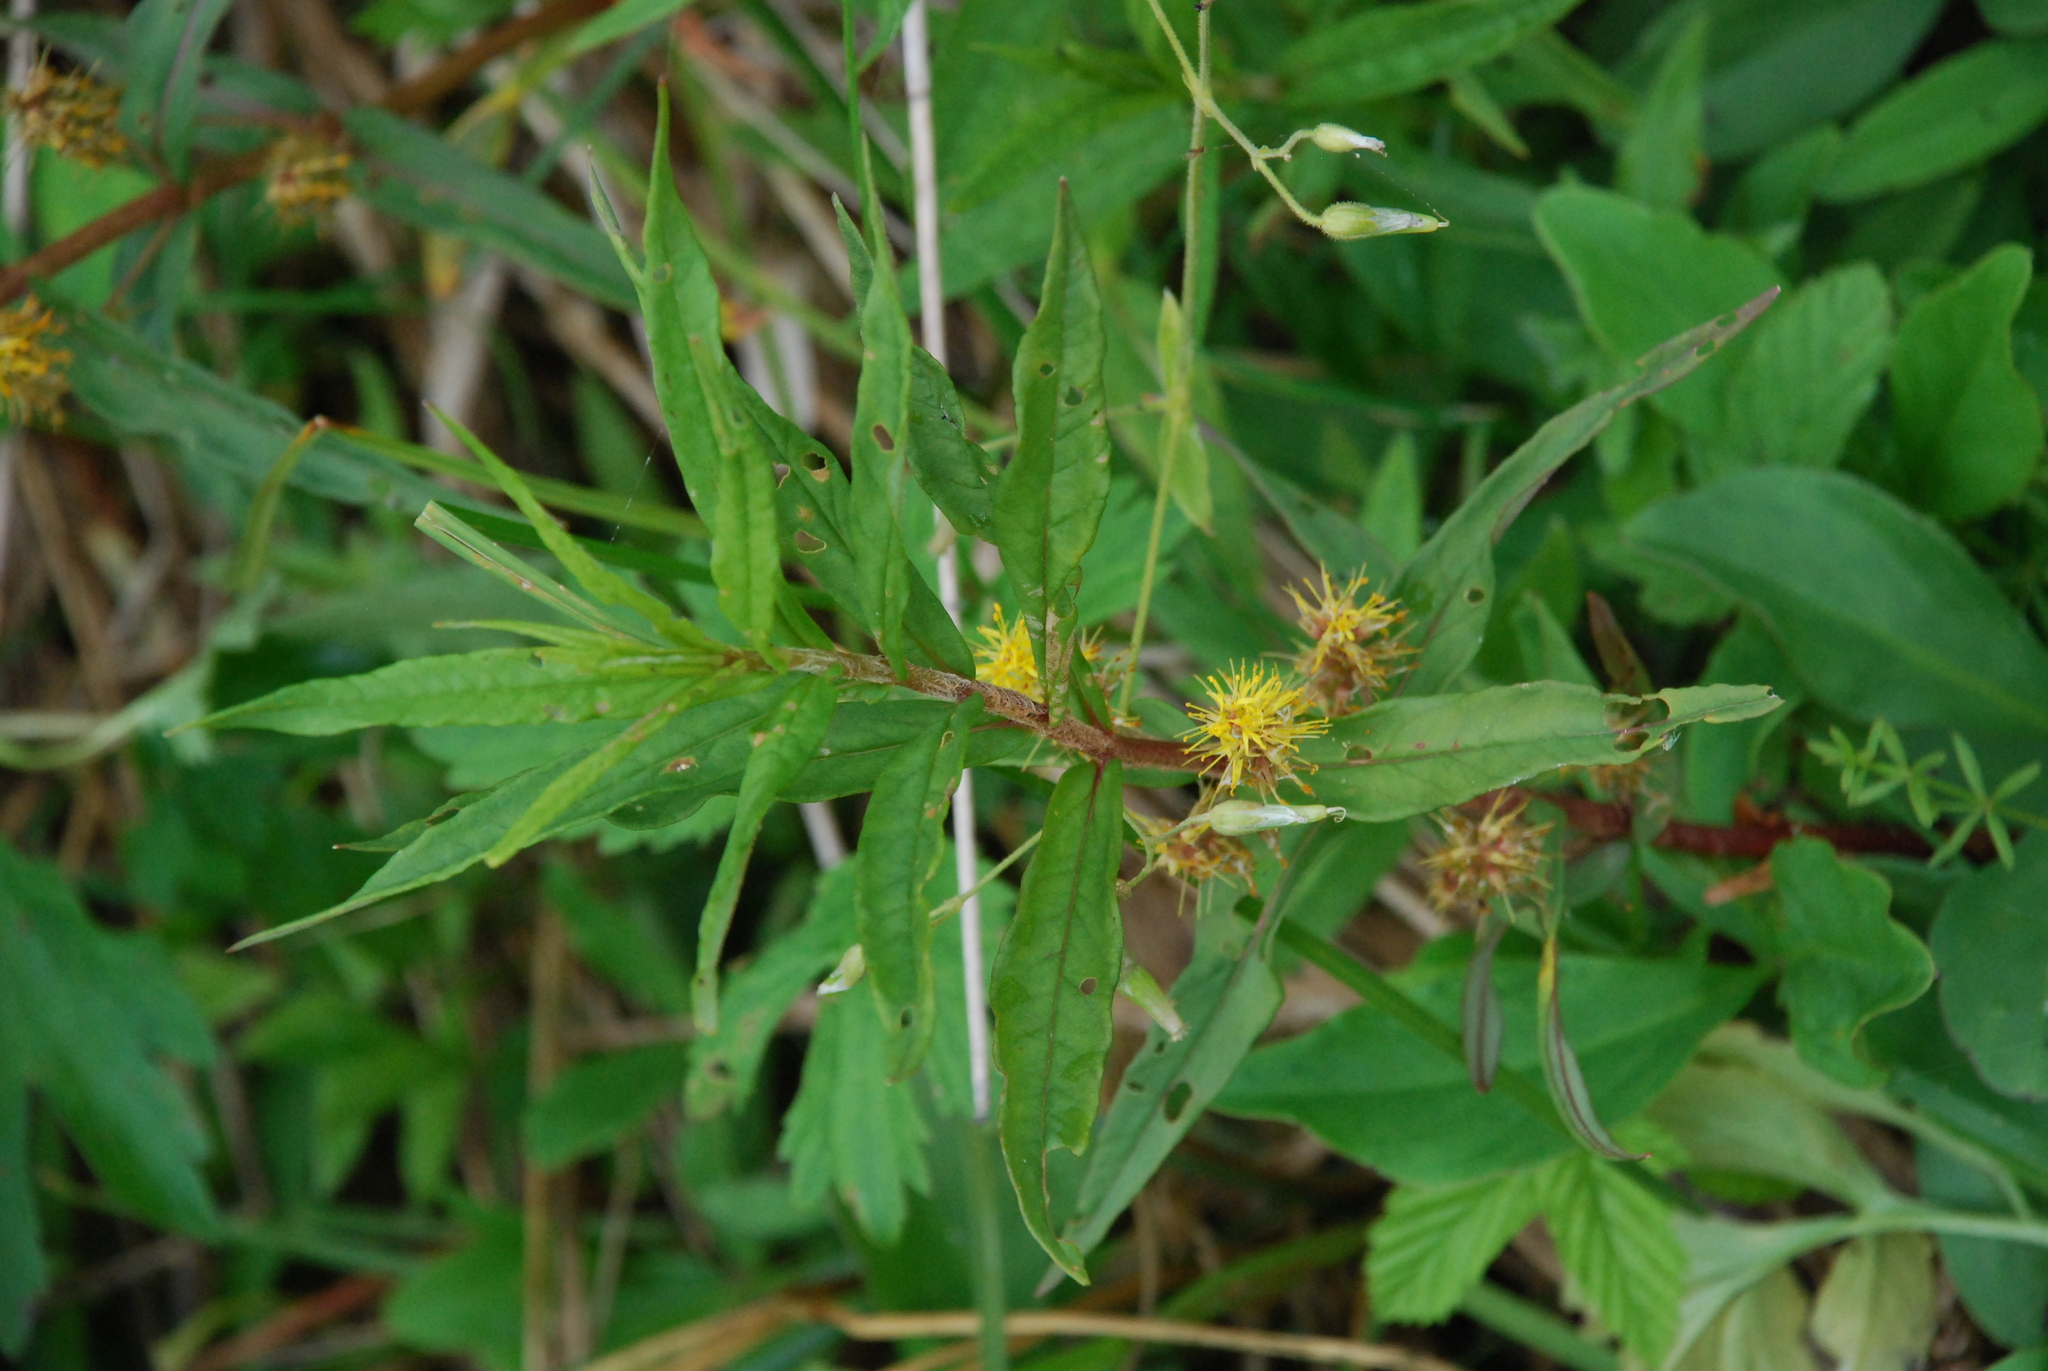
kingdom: Plantae
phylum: Tracheophyta
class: Magnoliopsida
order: Ericales
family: Primulaceae
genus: Lysimachia
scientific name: Lysimachia thyrsiflora
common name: Tufted loosestrife
